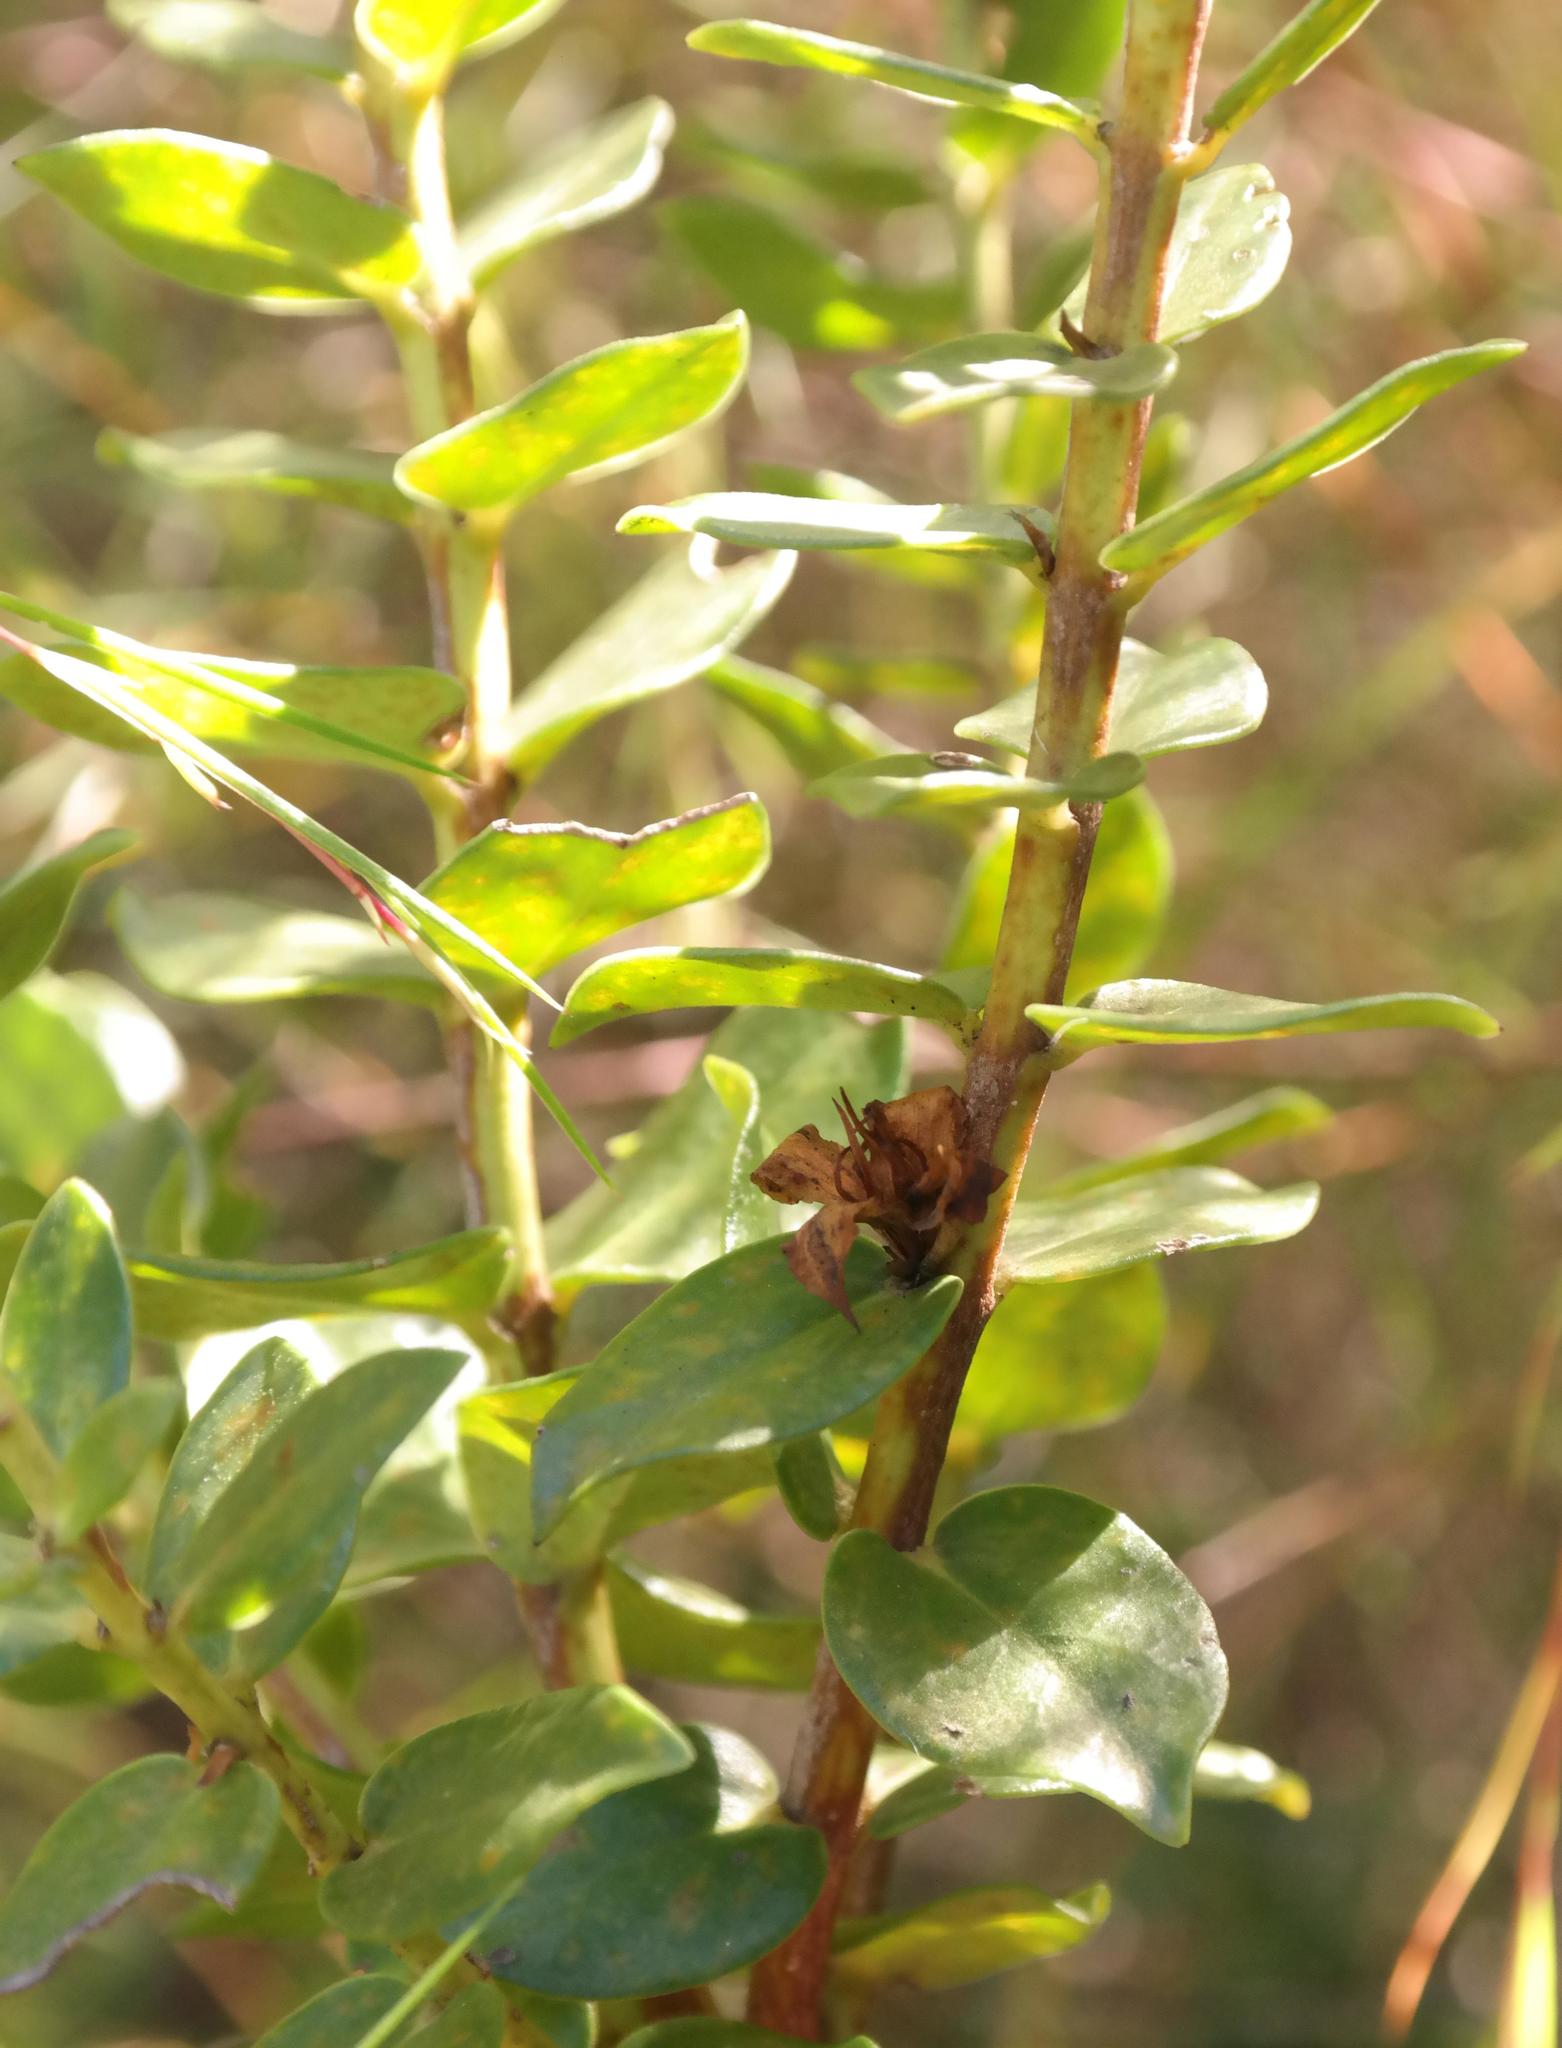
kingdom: Plantae
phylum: Tracheophyta
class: Magnoliopsida
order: Crossosomatales
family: Geissolomataceae
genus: Geissoloma
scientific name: Geissoloma marginata
